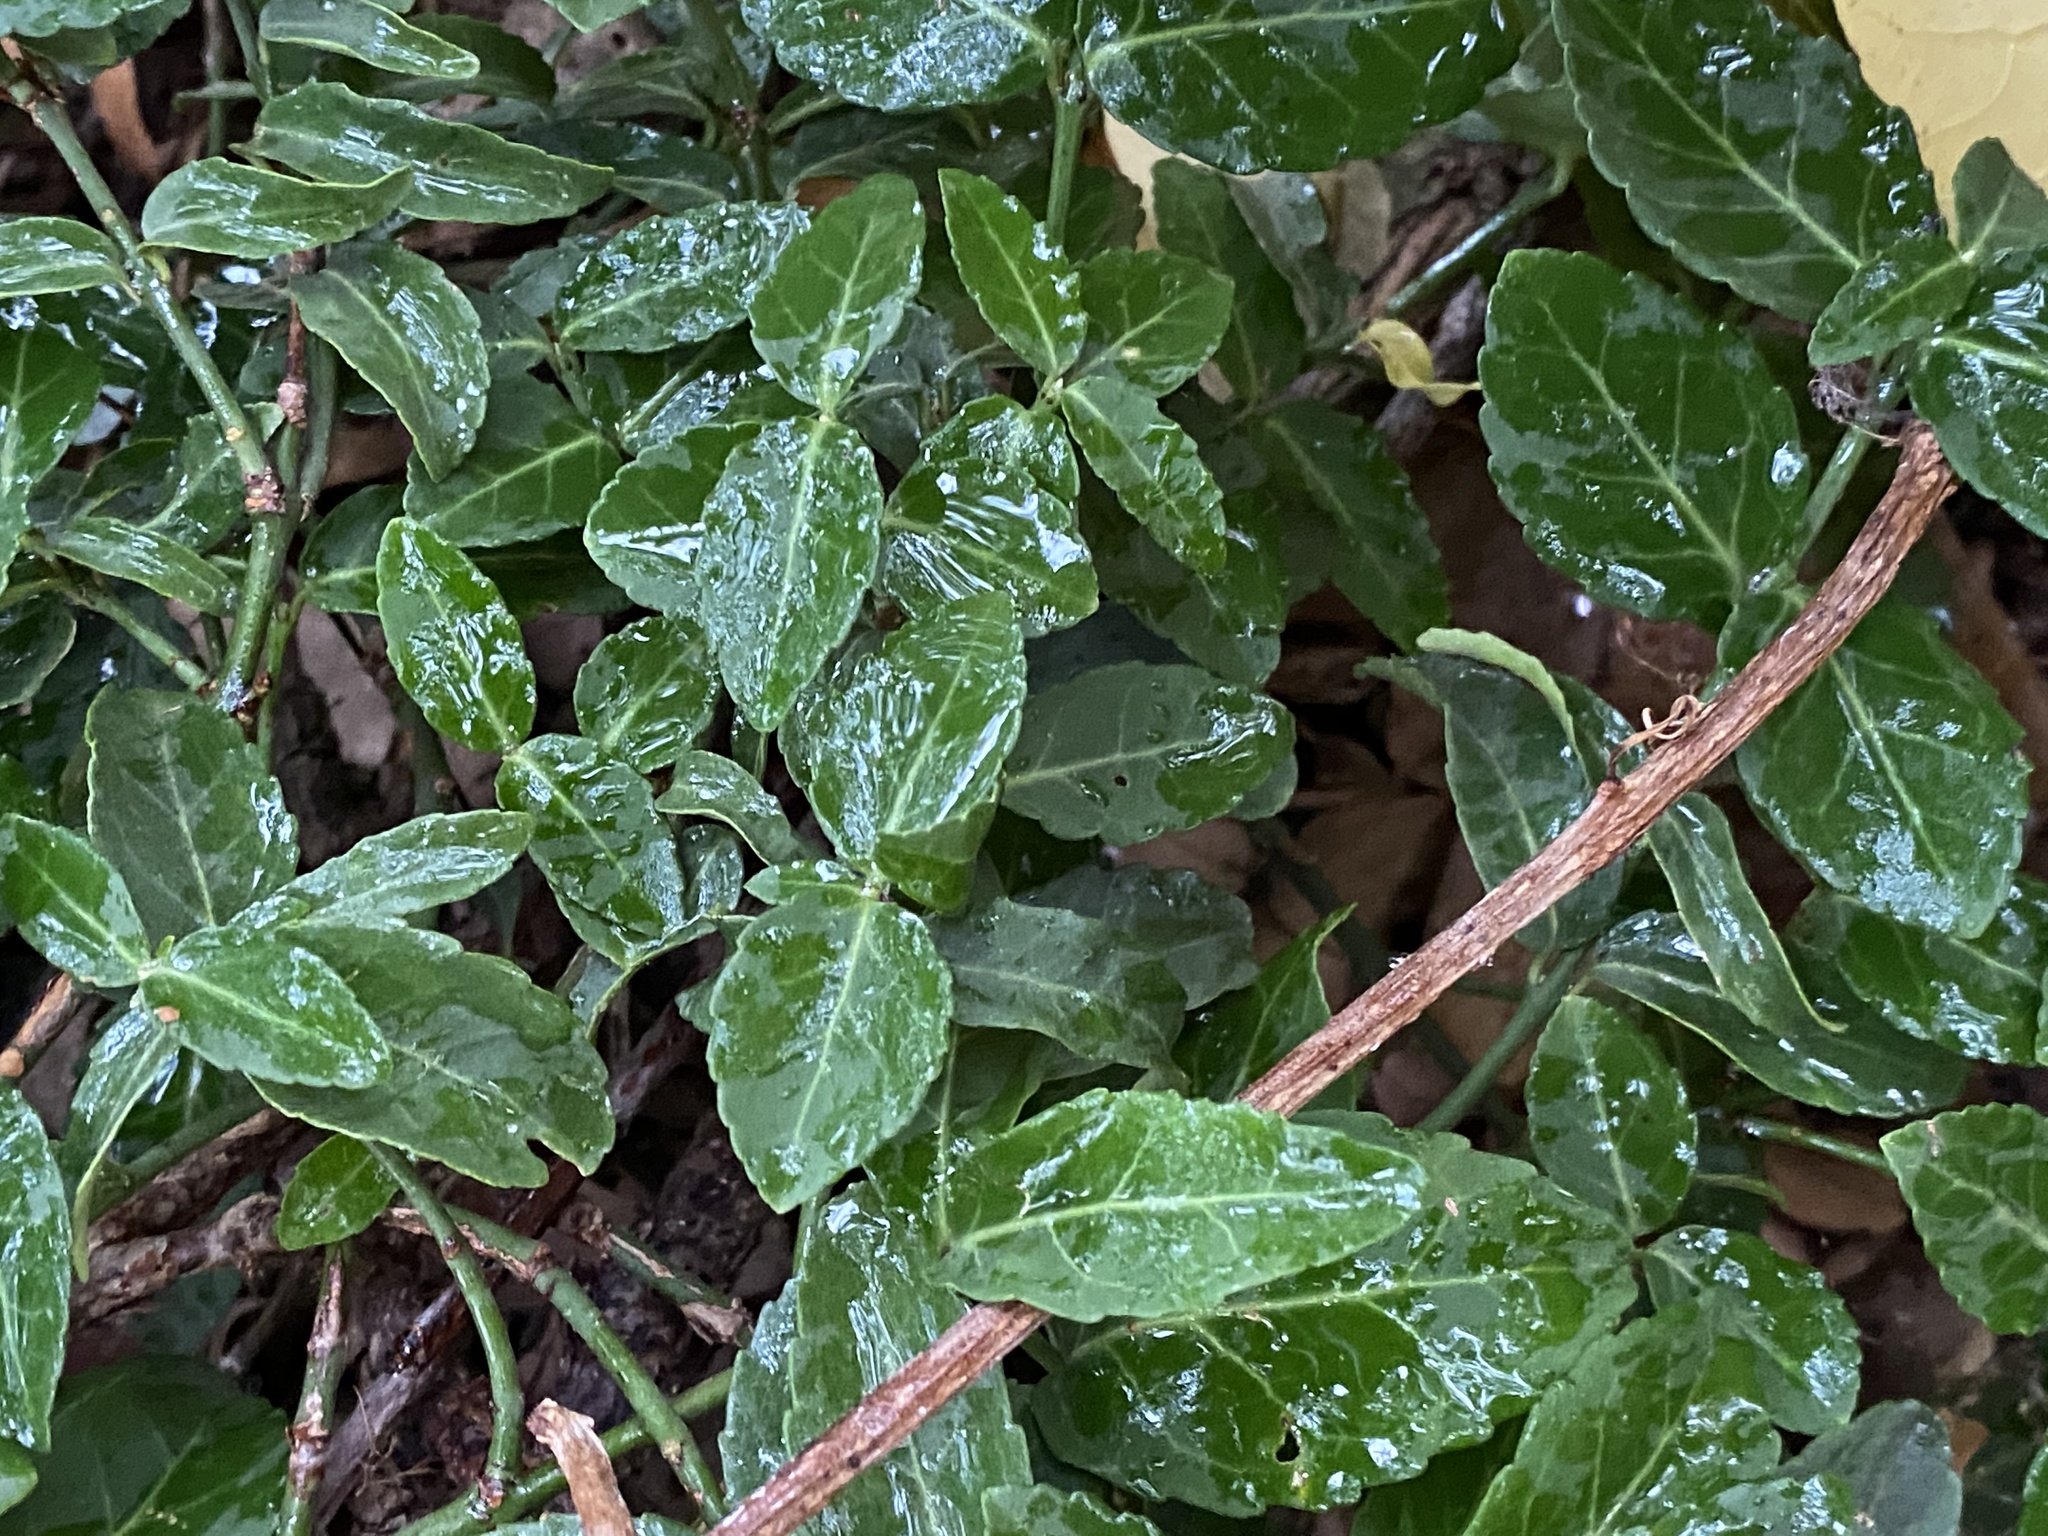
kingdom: Plantae
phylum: Tracheophyta
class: Magnoliopsida
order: Celastrales
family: Celastraceae
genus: Euonymus
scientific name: Euonymus fortunei
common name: Climbing euonymus
